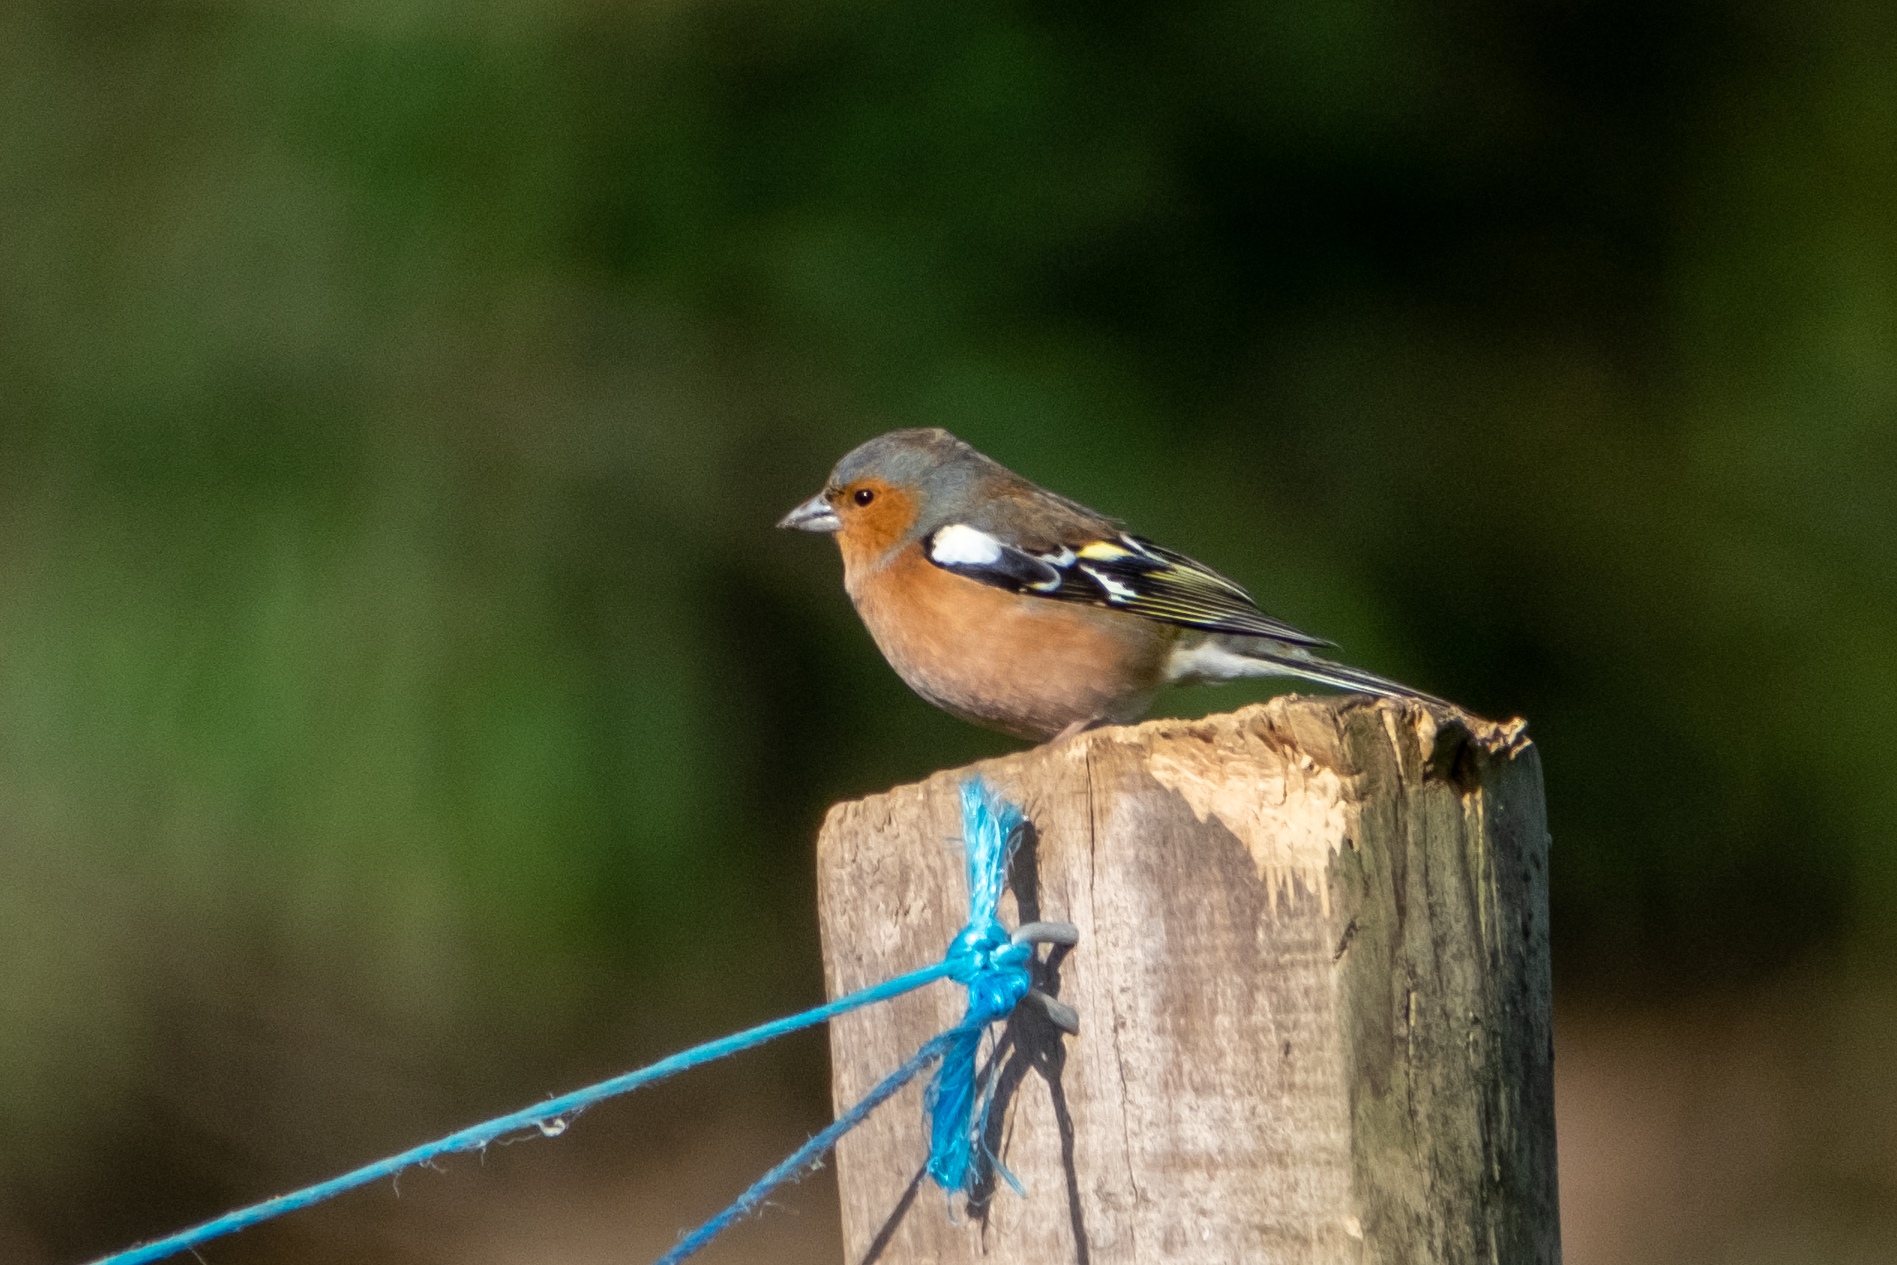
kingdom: Animalia
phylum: Chordata
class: Aves
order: Passeriformes
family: Fringillidae
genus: Fringilla
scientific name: Fringilla coelebs
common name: Common chaffinch
